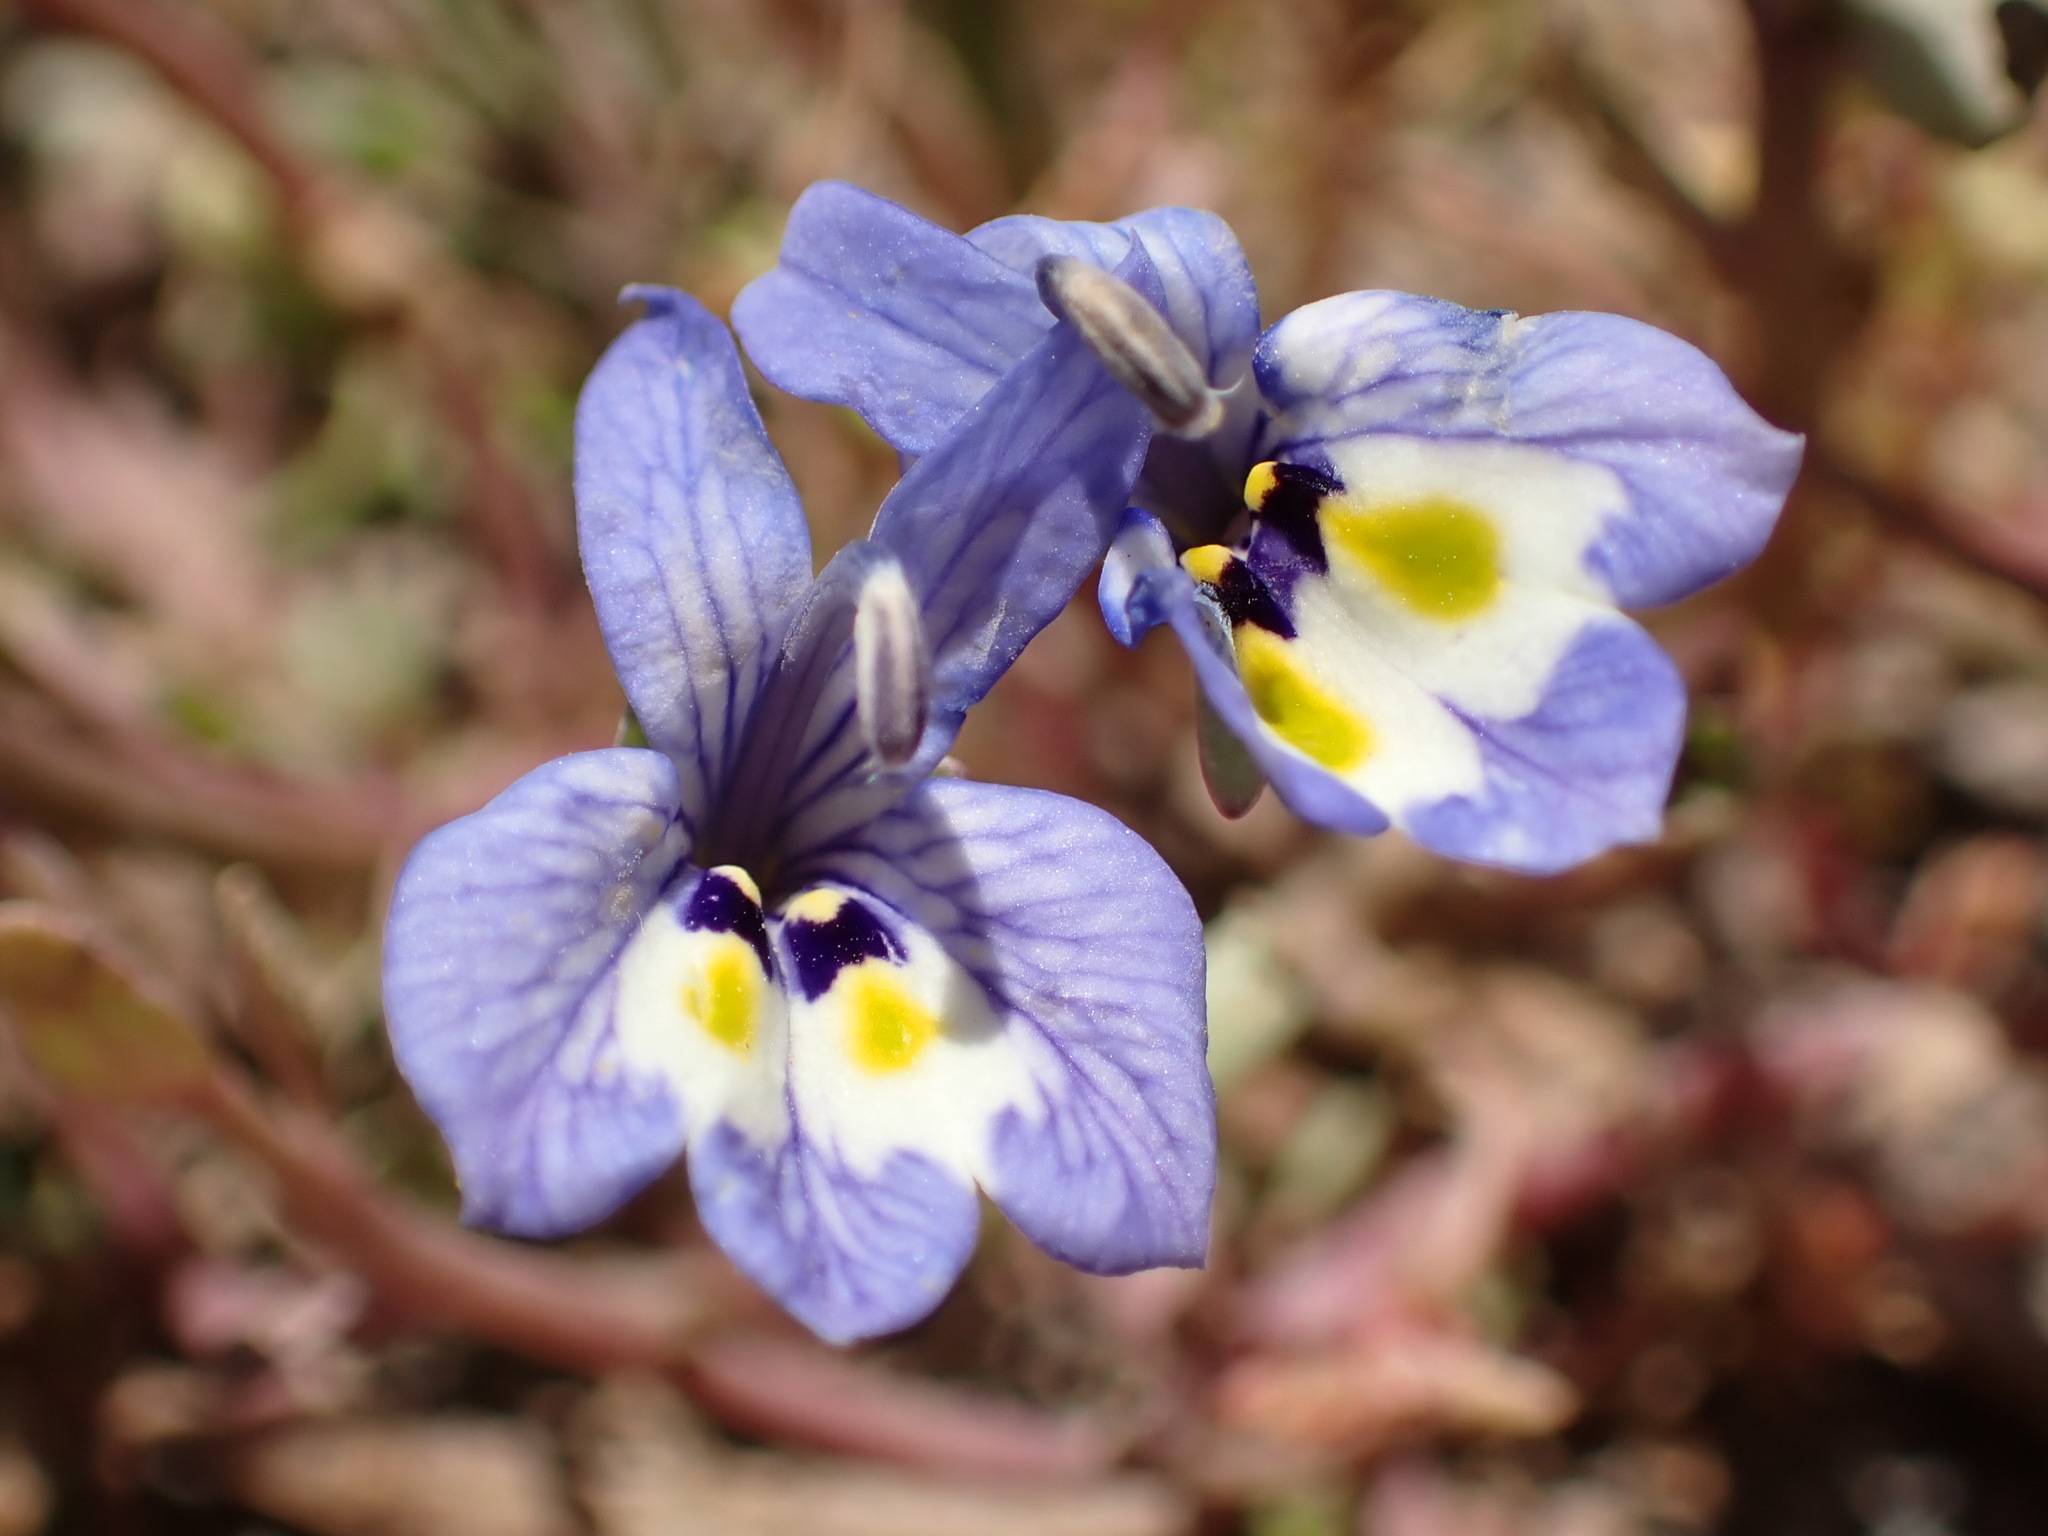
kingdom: Plantae
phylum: Tracheophyta
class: Magnoliopsida
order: Asterales
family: Campanulaceae
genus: Downingia
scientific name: Downingia insignis
